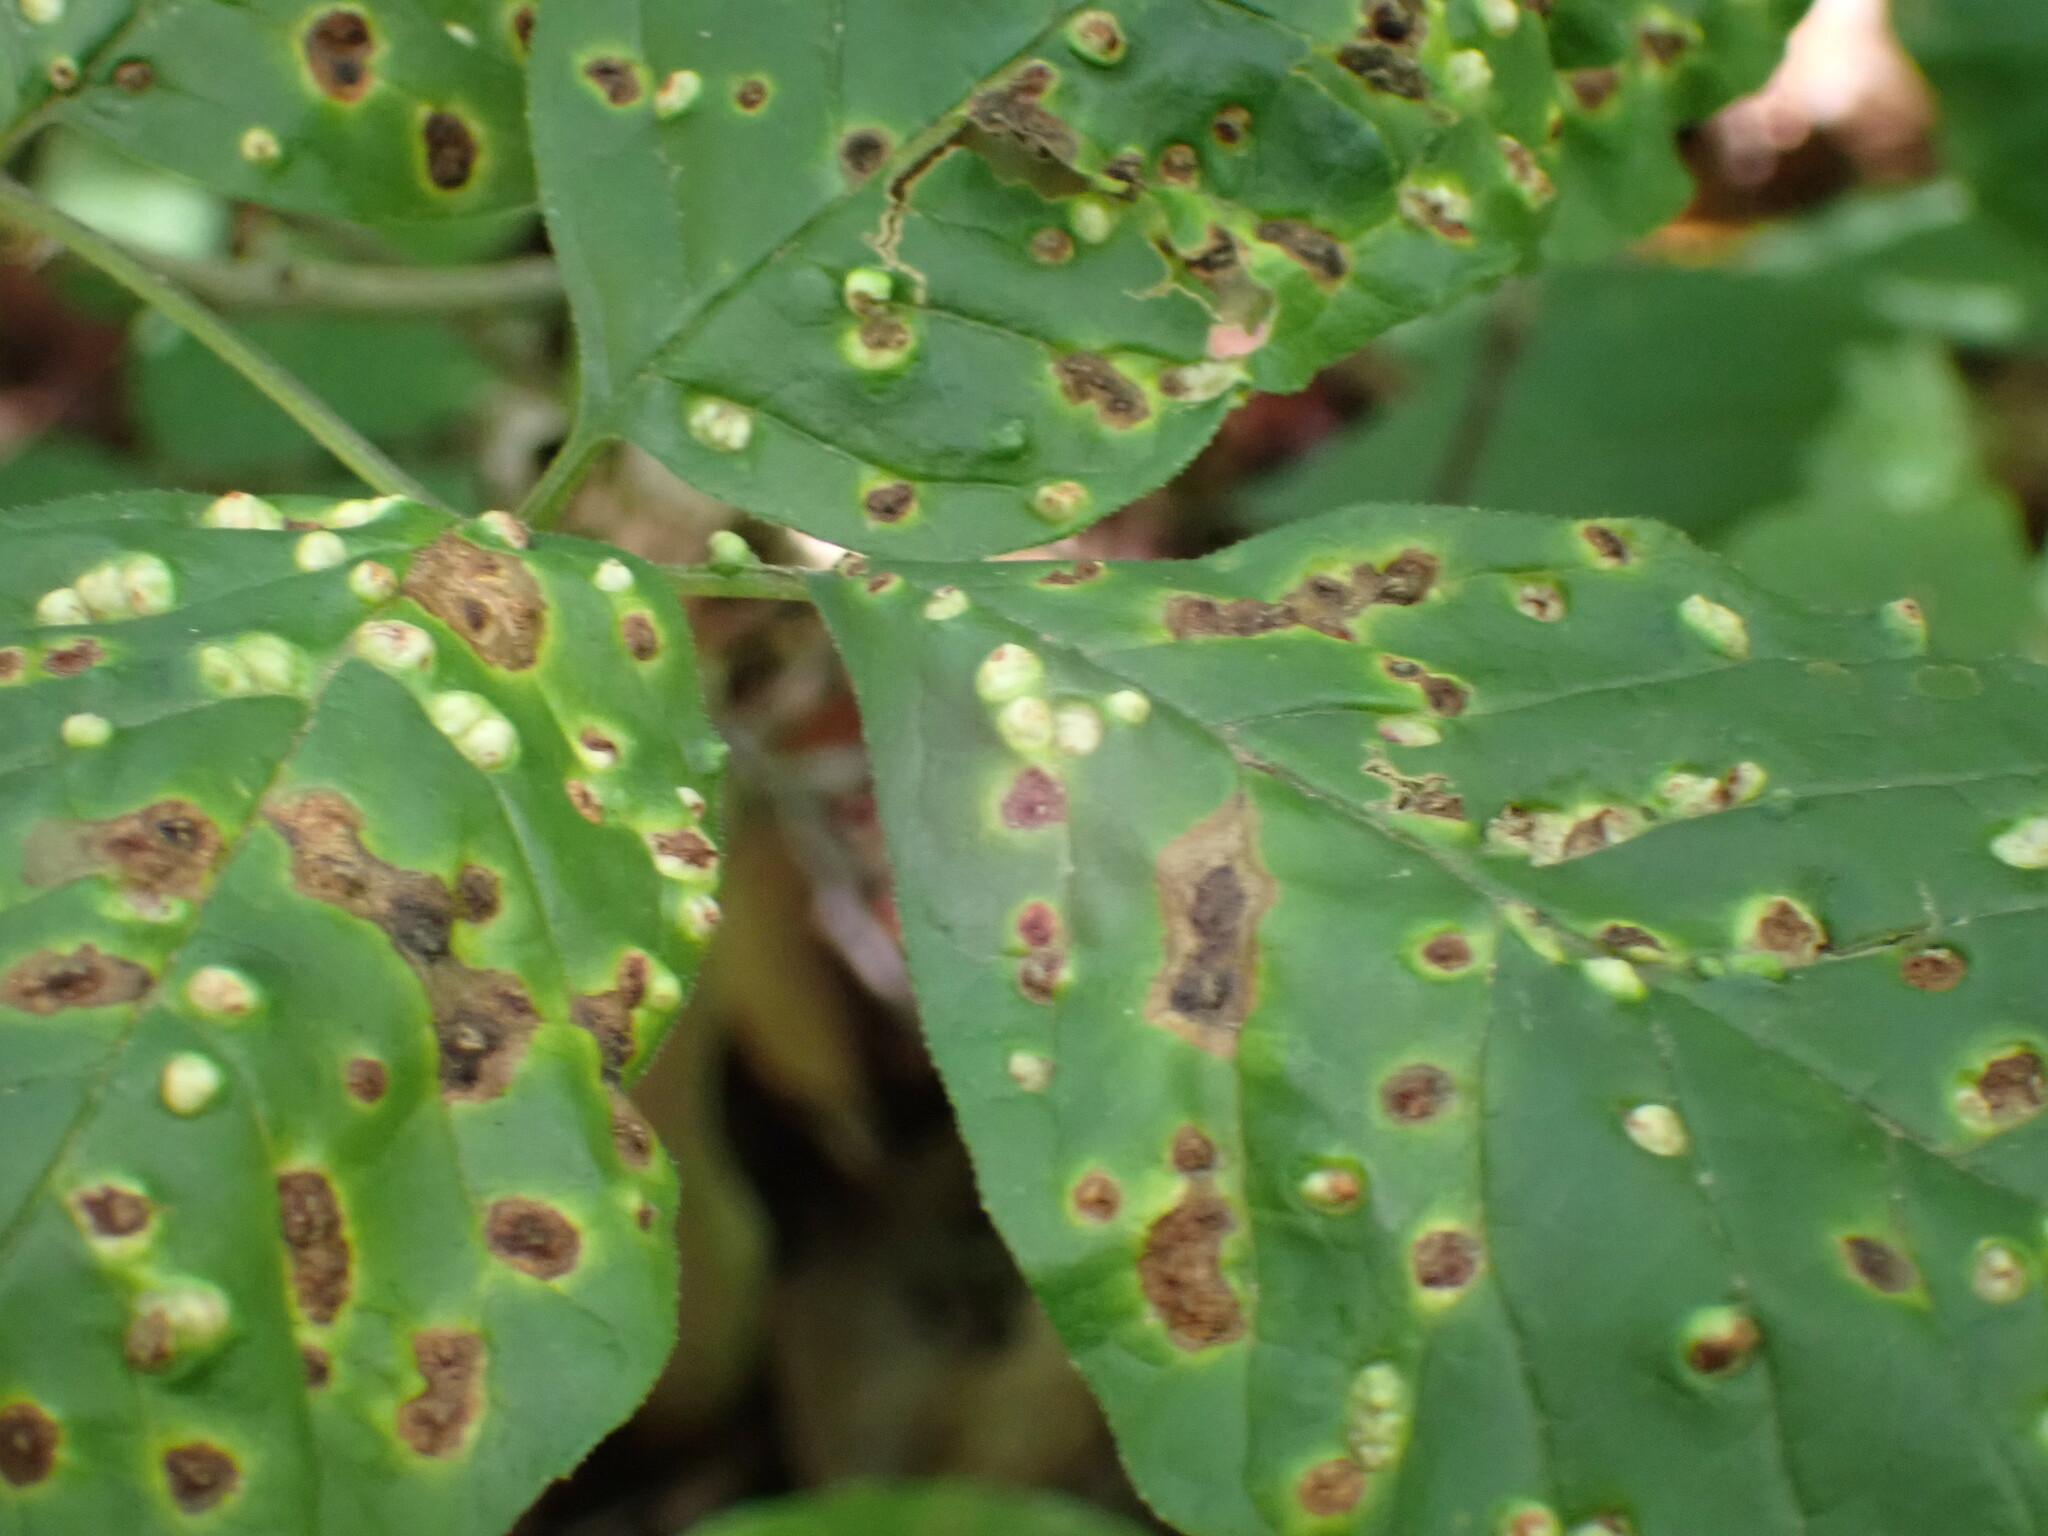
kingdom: Animalia
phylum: Arthropoda
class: Arachnida
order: Trombidiformes
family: Eriophyidae
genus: Aceria
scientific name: Aceria fraxinicola
